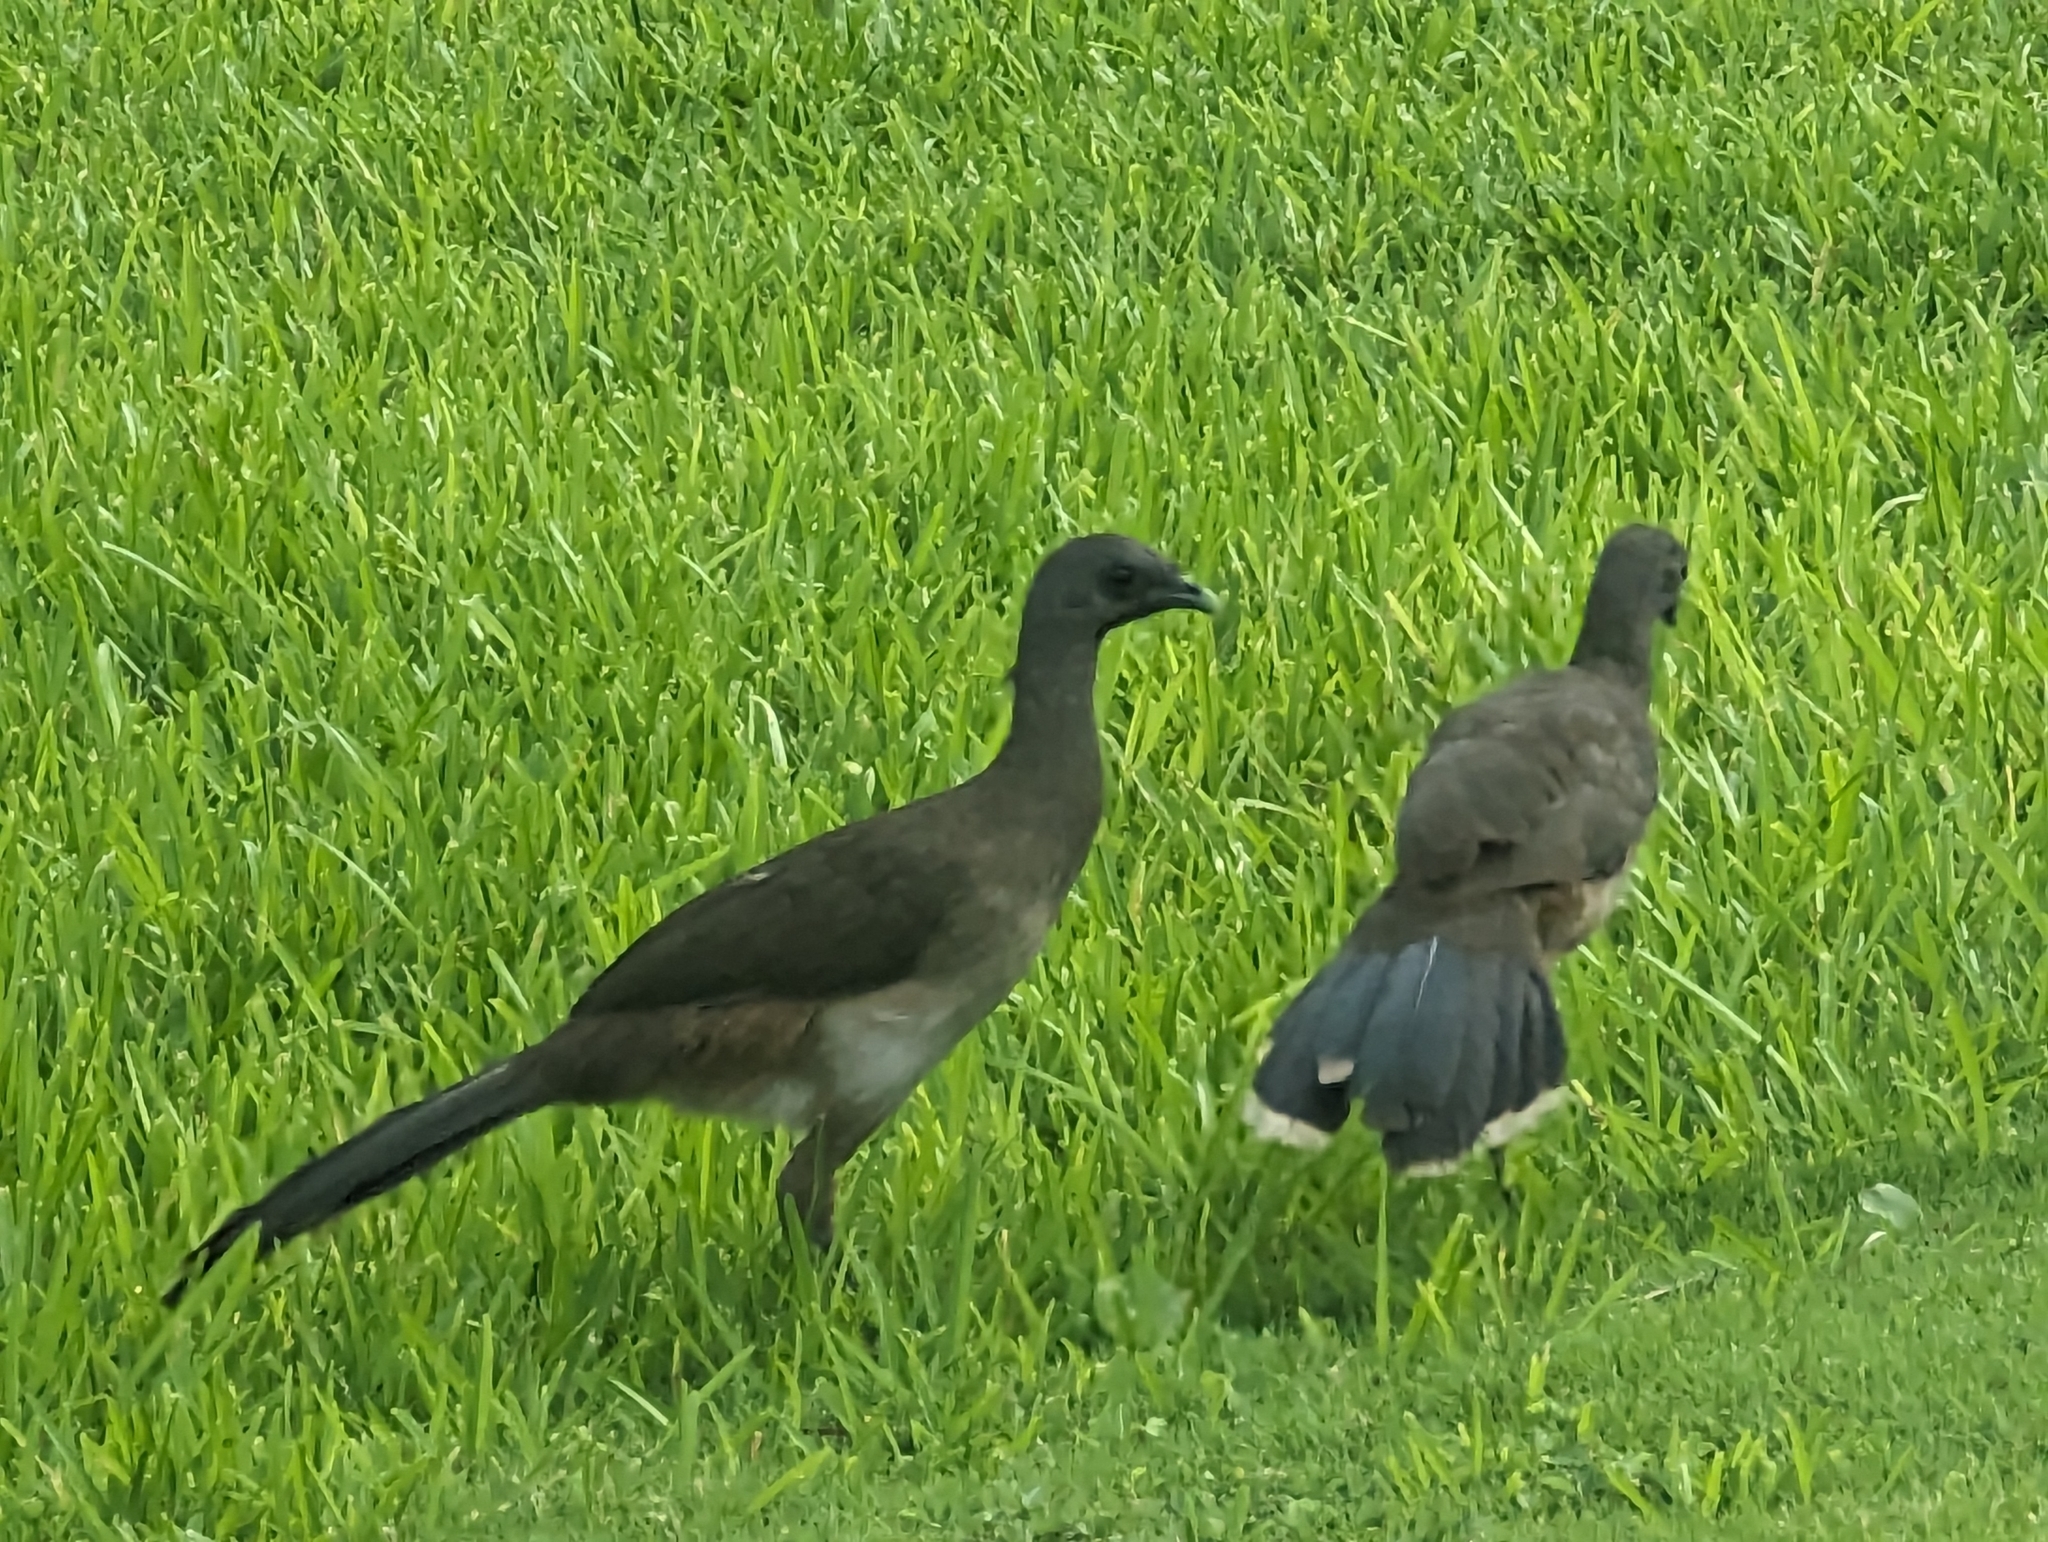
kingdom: Animalia
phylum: Chordata
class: Aves
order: Galliformes
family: Cracidae
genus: Ortalis
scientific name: Ortalis vetula
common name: Plain chachalaca
